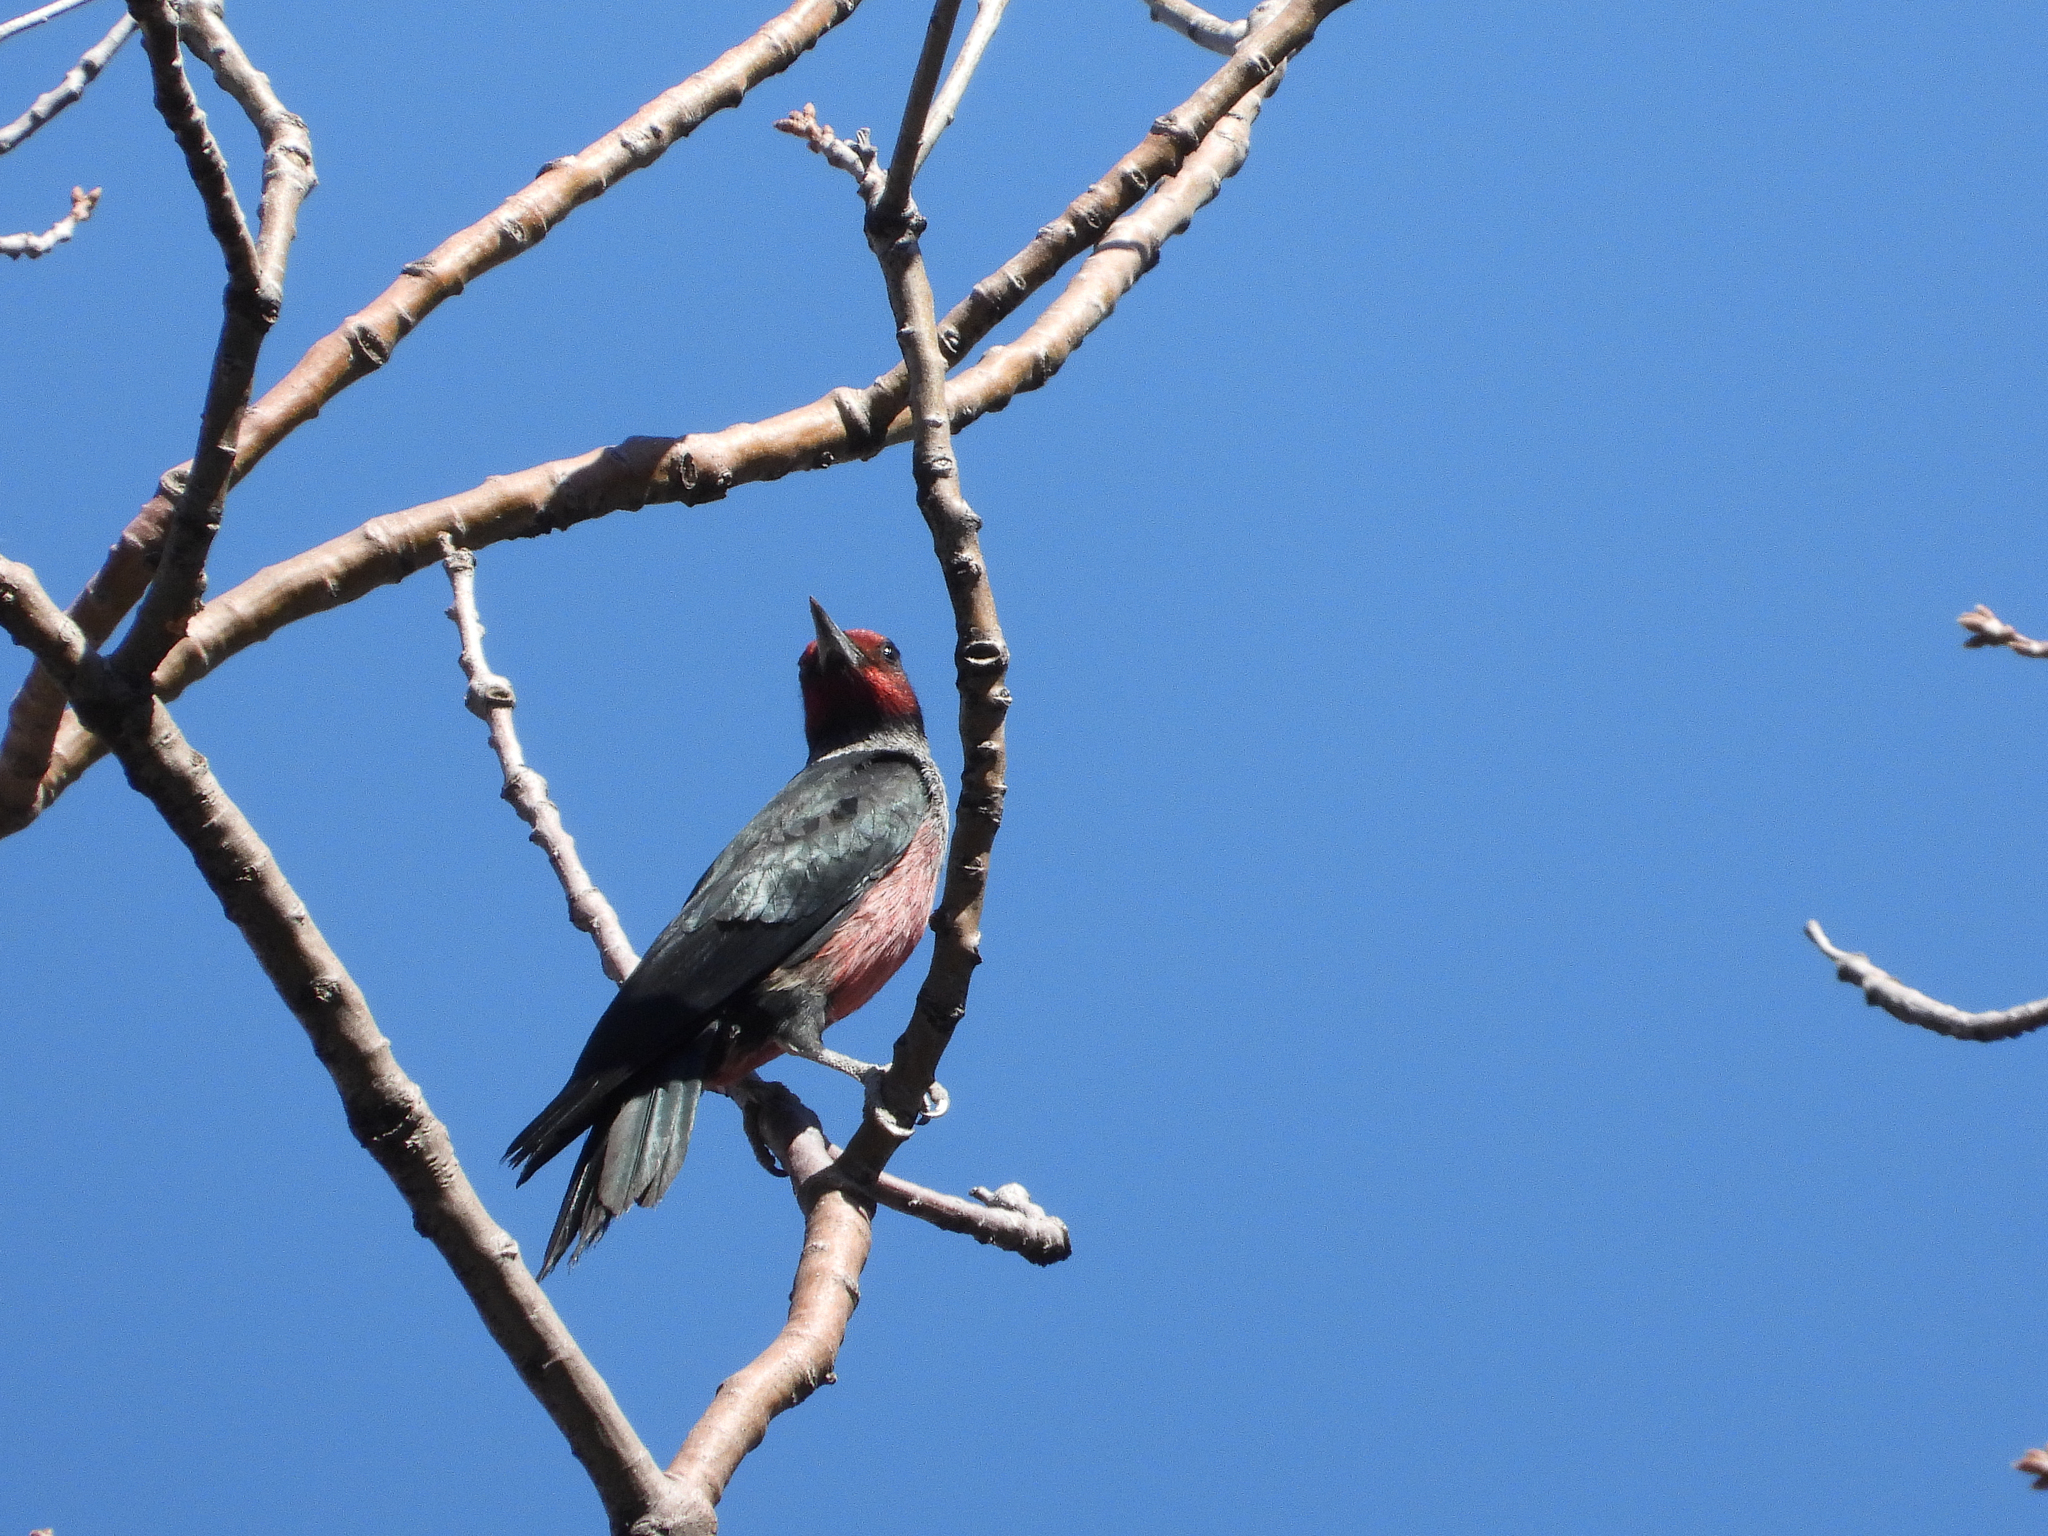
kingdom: Animalia
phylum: Chordata
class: Aves
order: Piciformes
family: Picidae
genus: Melanerpes
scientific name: Melanerpes lewis
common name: Lewis's woodpecker
